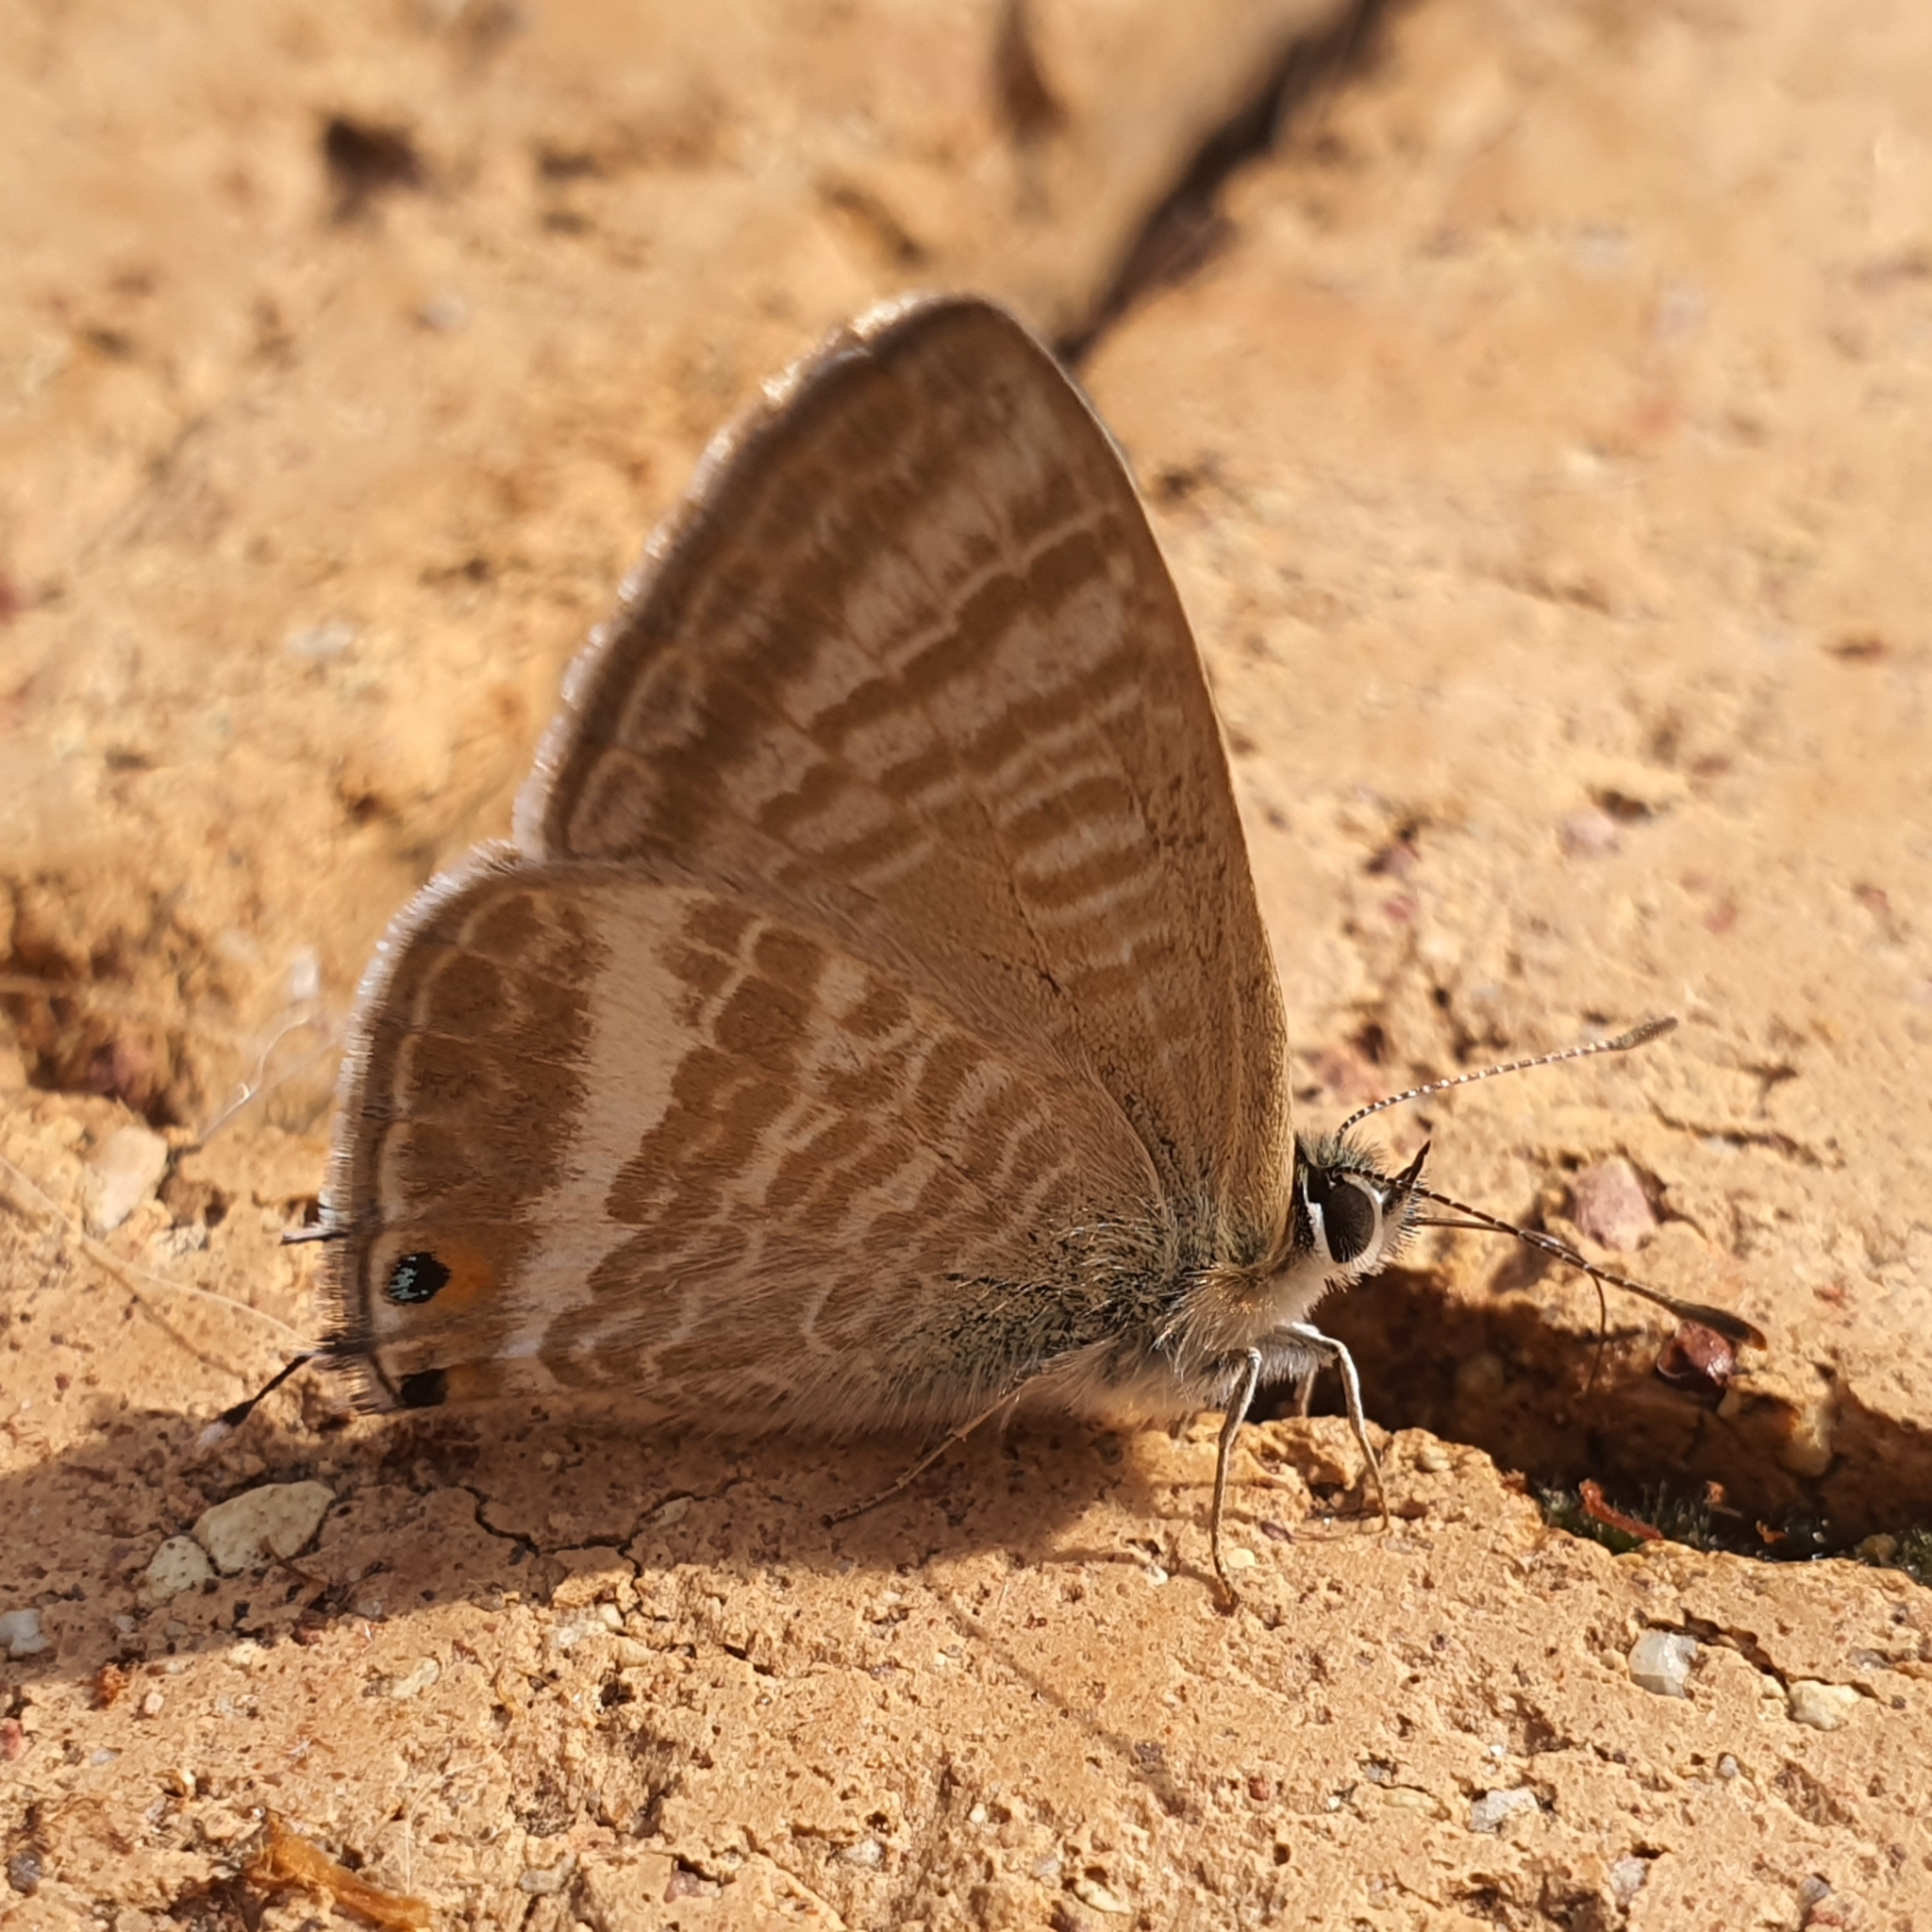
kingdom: Animalia
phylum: Arthropoda
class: Insecta
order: Lepidoptera
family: Lycaenidae
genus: Lampides
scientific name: Lampides boeticus
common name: Long-tailed blue
